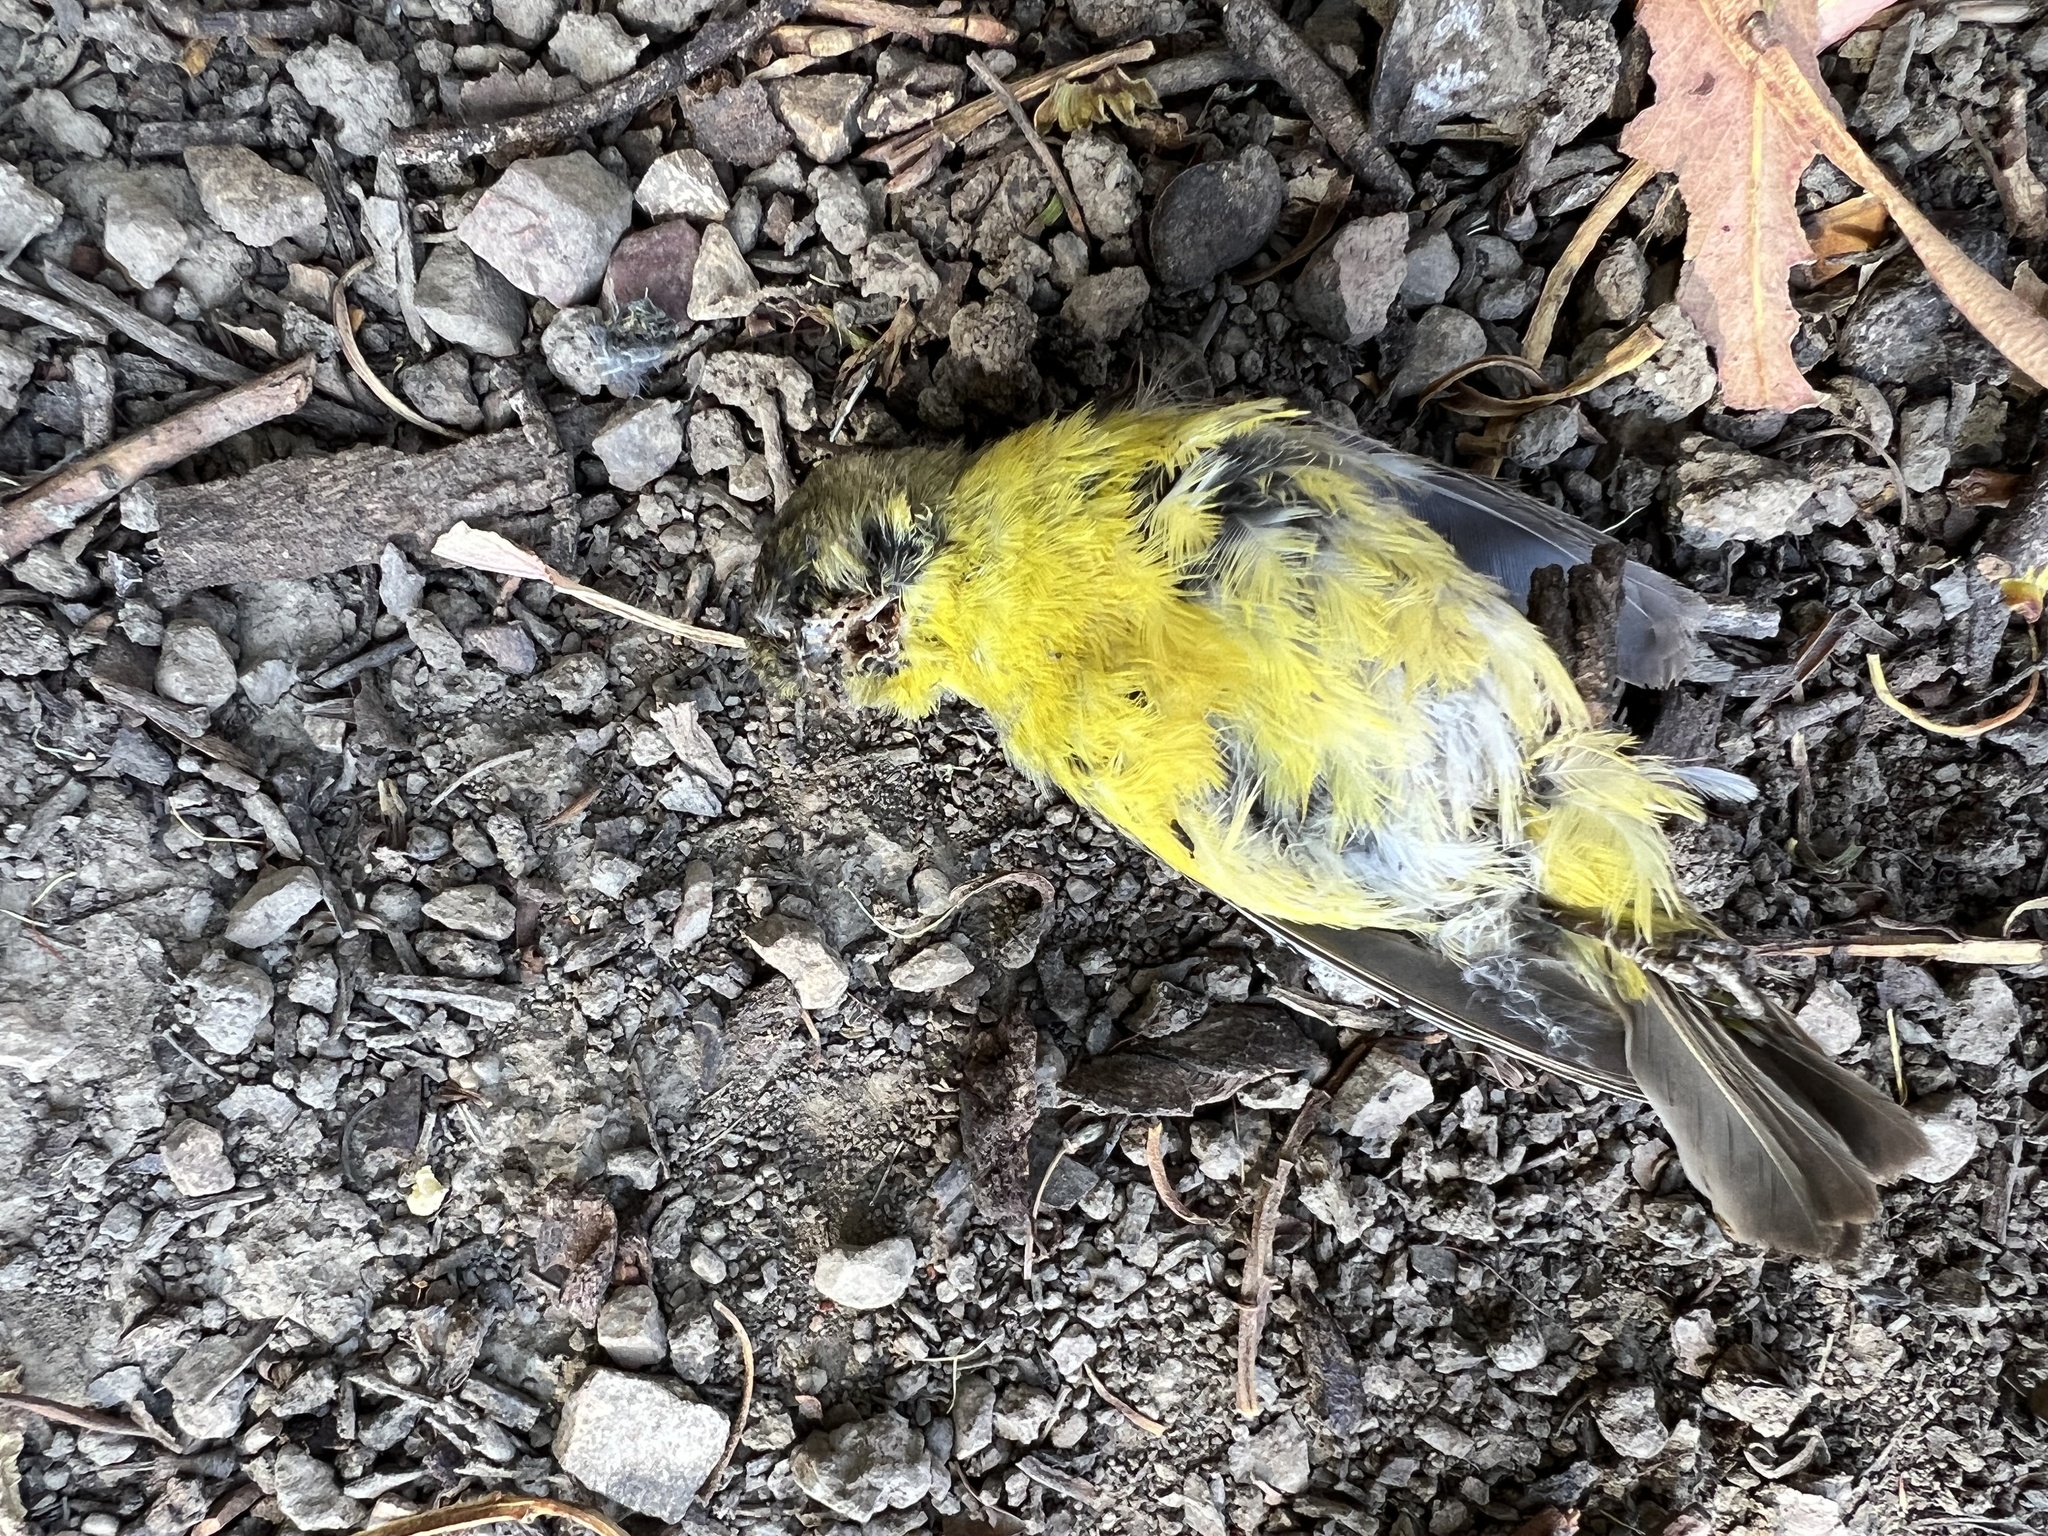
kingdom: Animalia
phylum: Chordata
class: Aves
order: Passeriformes
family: Fringillidae
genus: Spinus
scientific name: Spinus psaltria
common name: Lesser goldfinch
